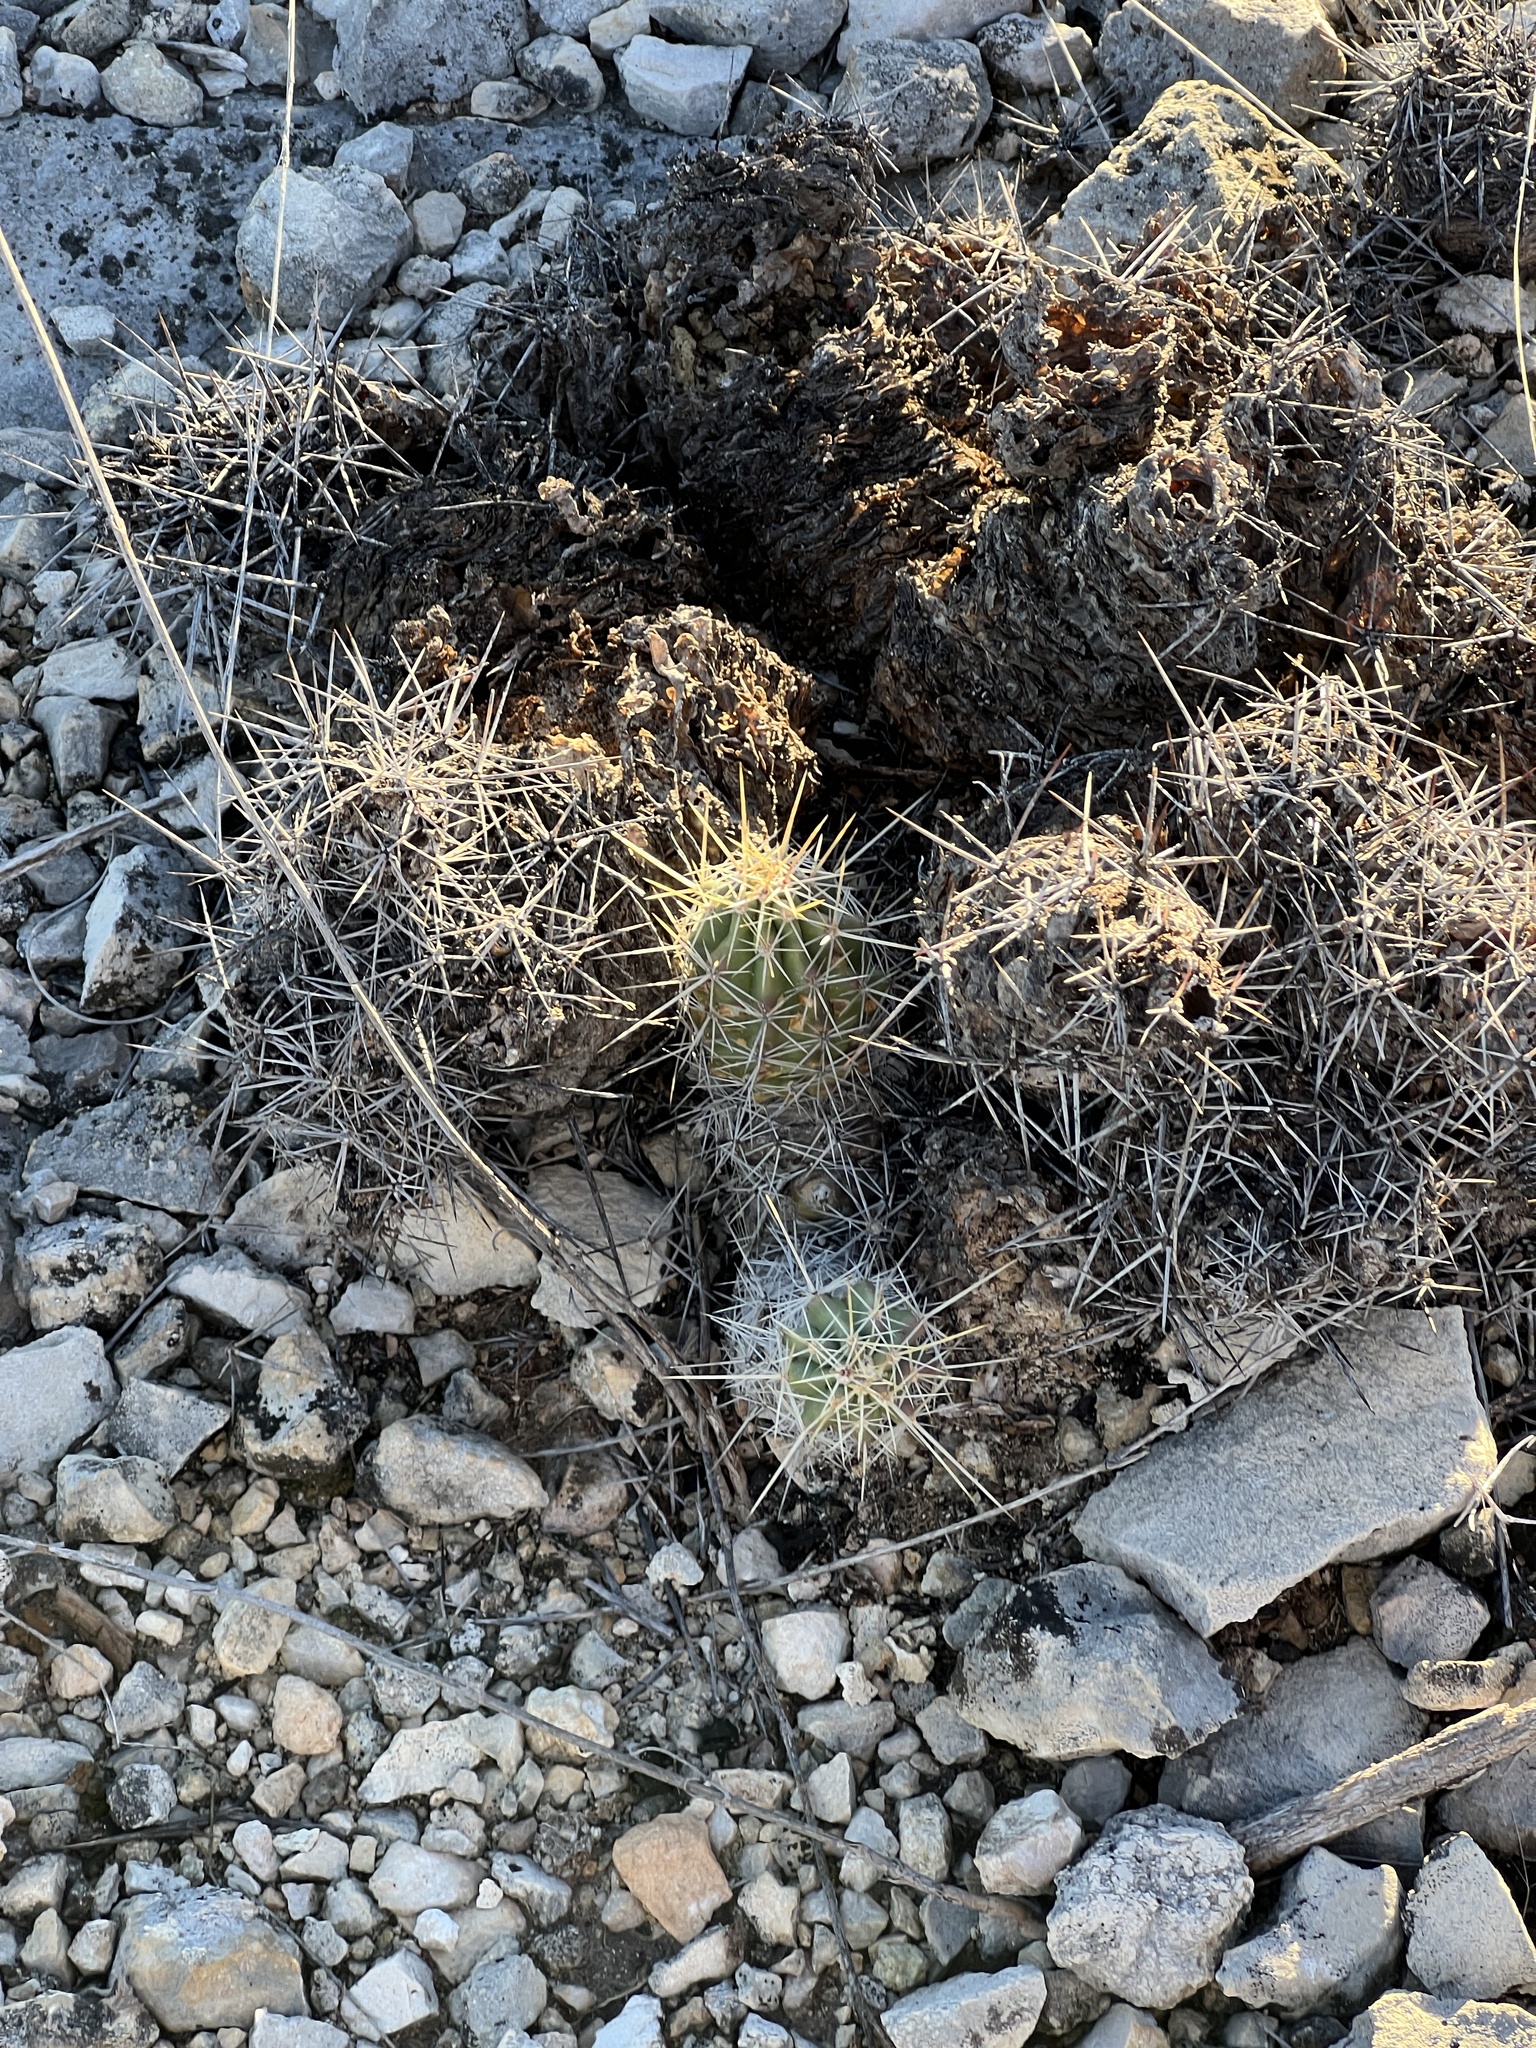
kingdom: Plantae
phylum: Tracheophyta
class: Magnoliopsida
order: Caryophyllales
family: Cactaceae
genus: Echinocereus
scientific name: Echinocereus enneacanthus
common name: Pitaya
